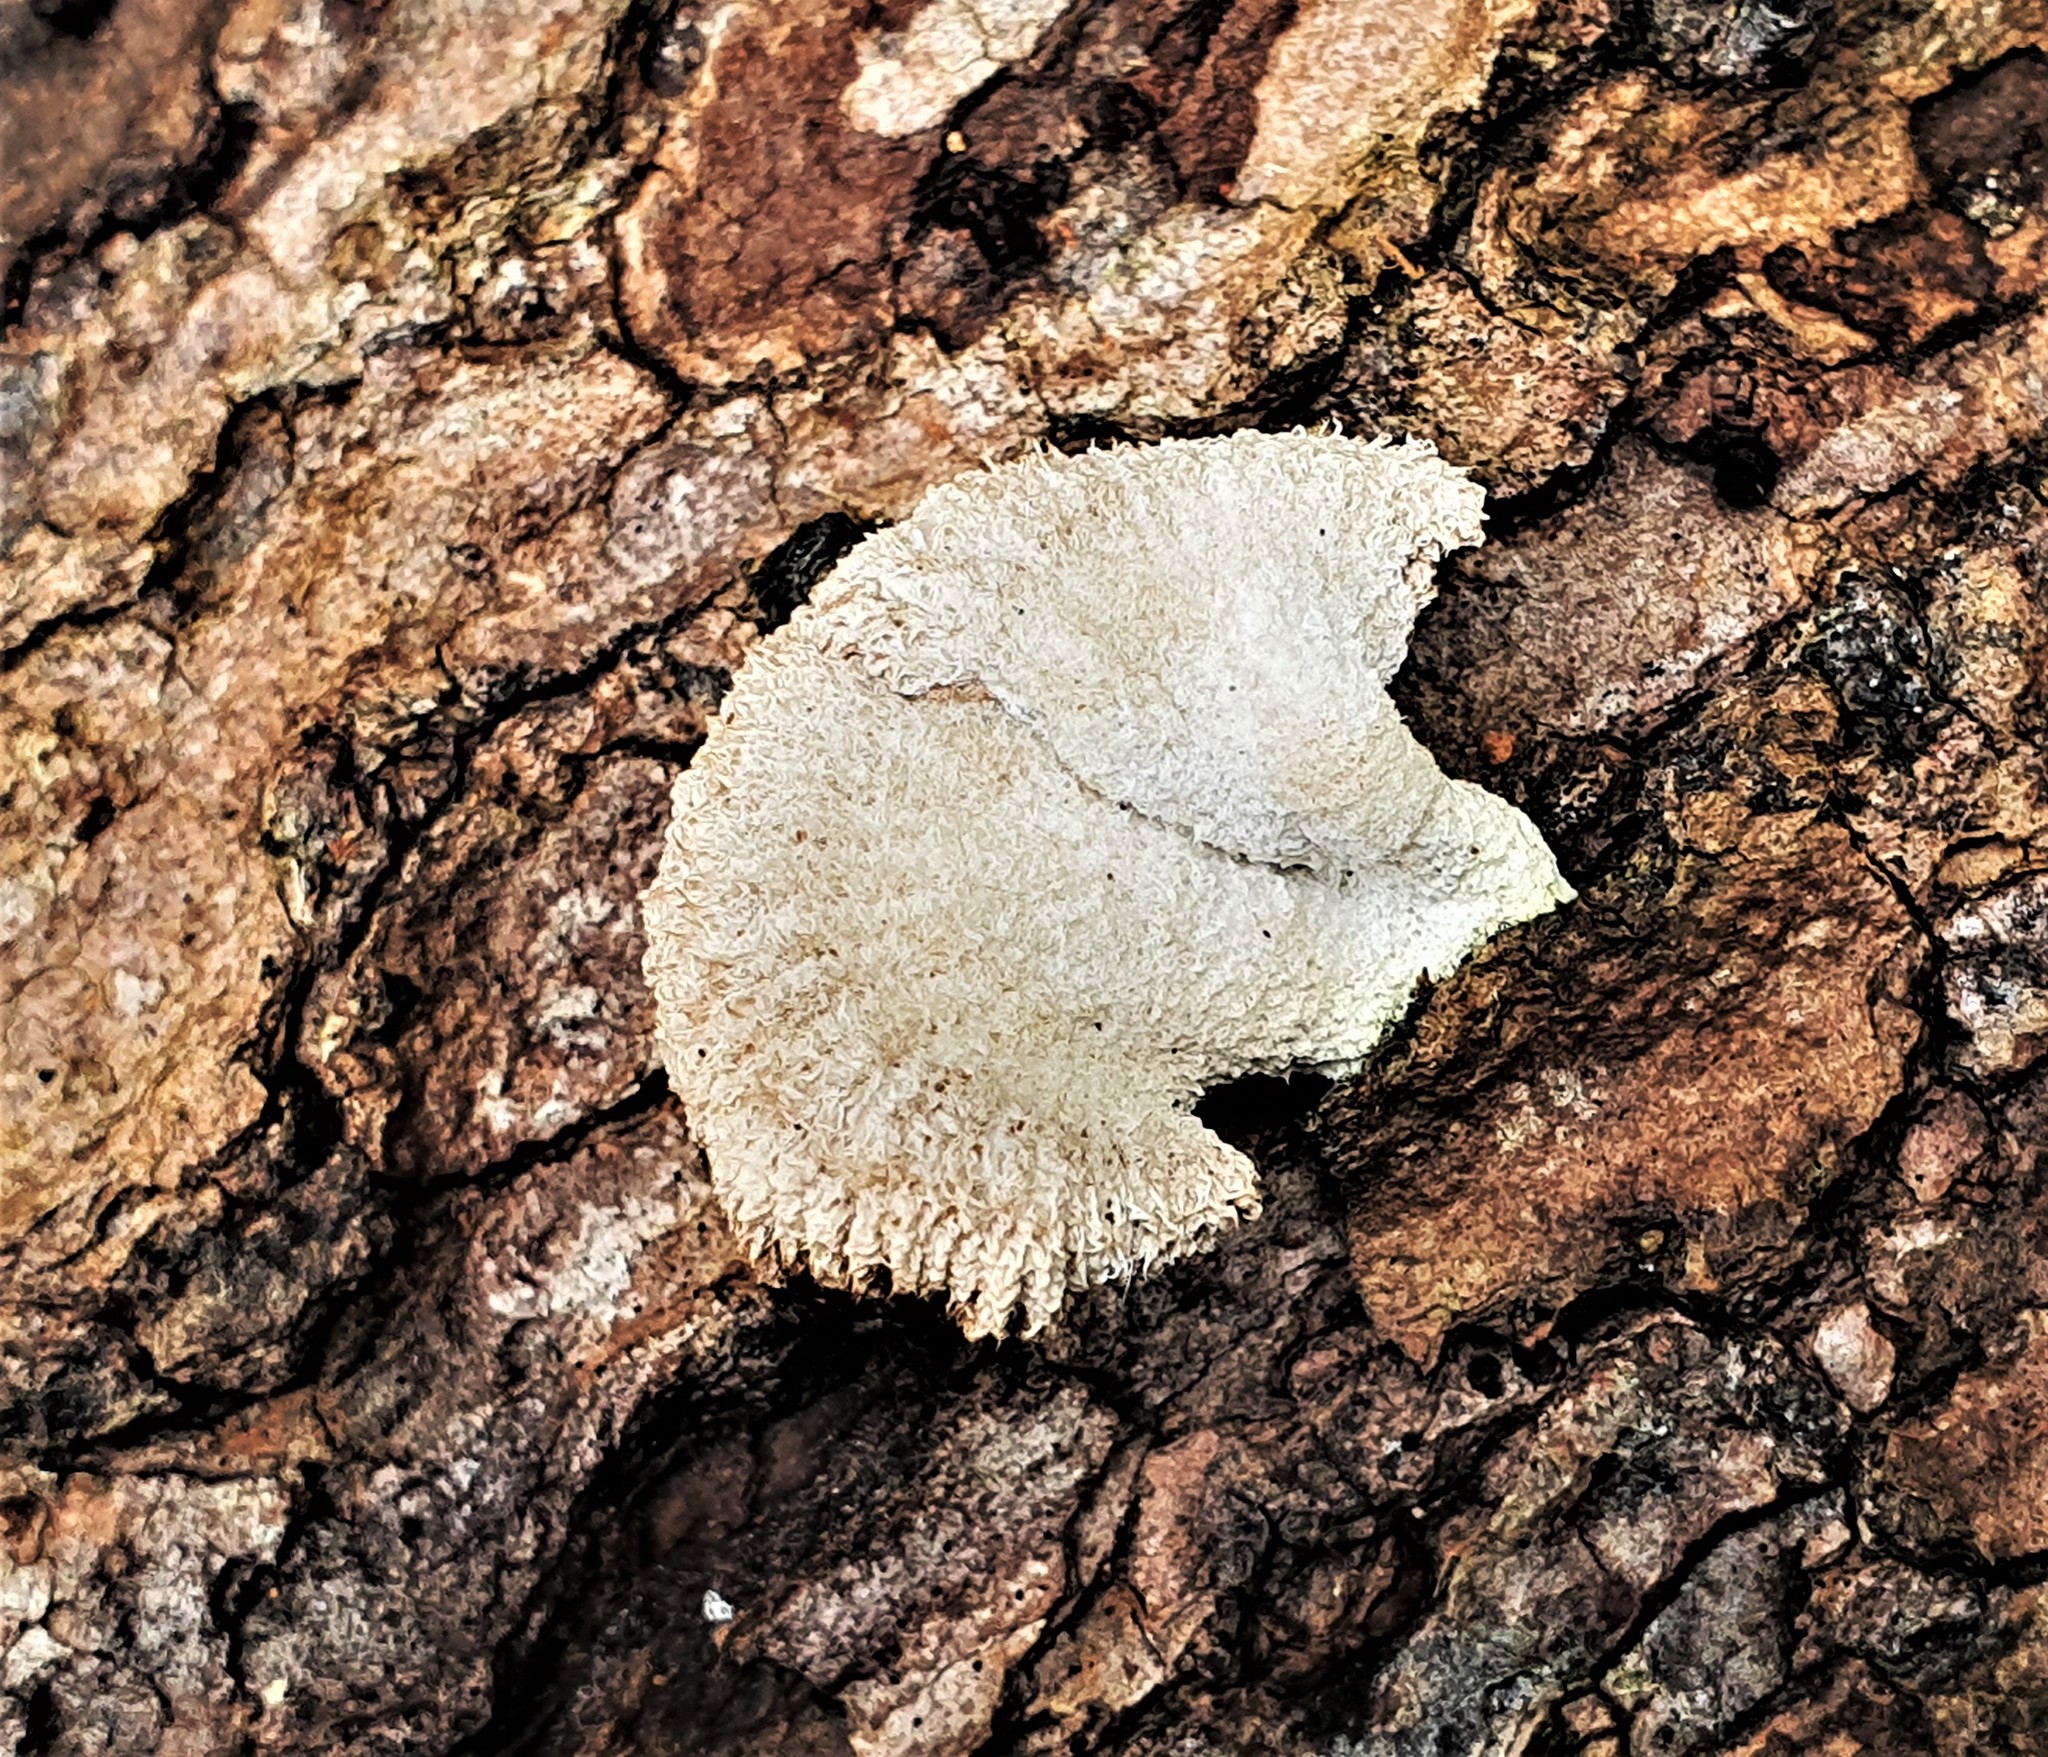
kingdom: Fungi
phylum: Basidiomycota
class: Agaricomycetes
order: Agaricales
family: Schizophyllaceae
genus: Schizophyllum
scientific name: Schizophyllum commune
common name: Common porecrust
